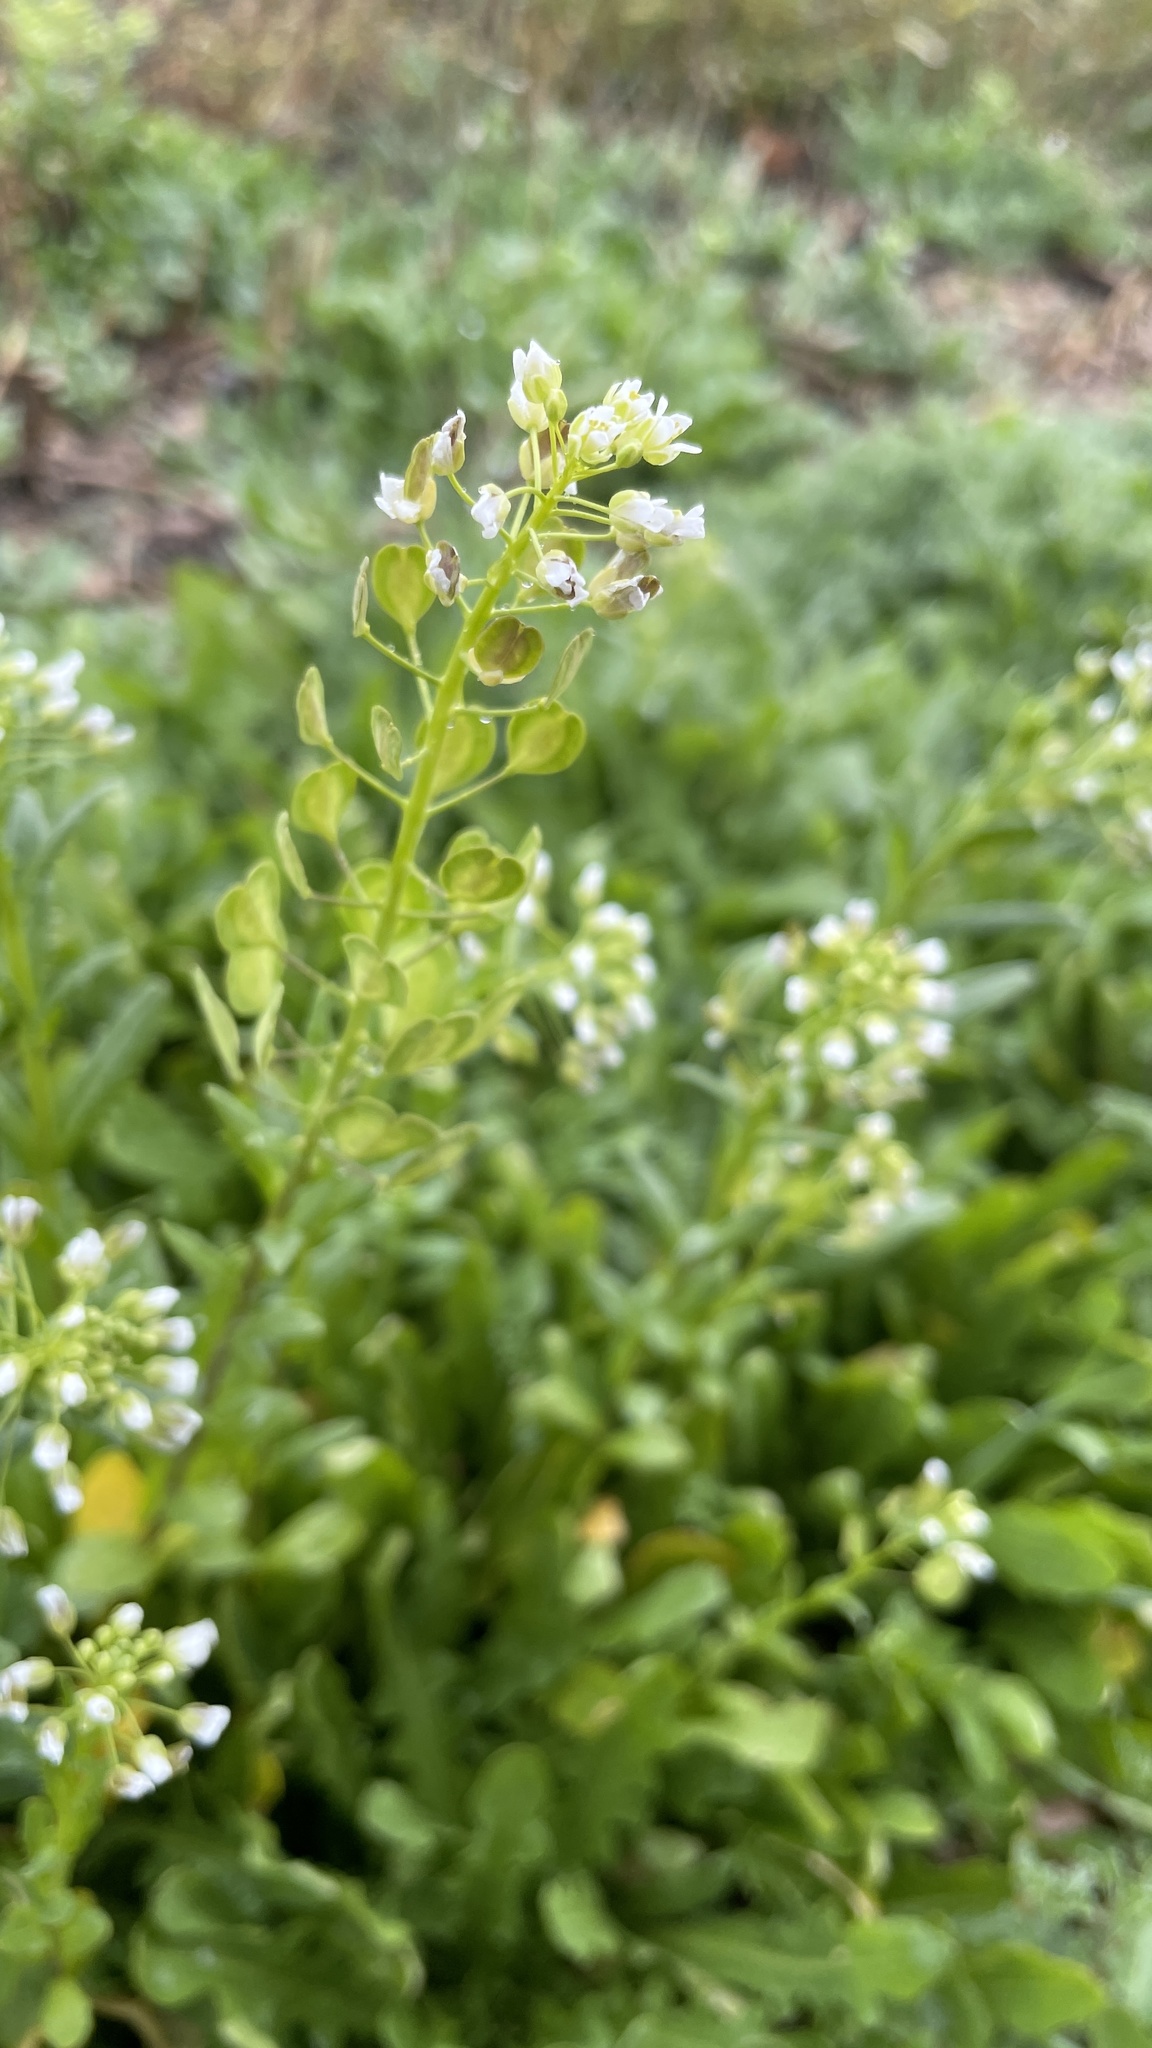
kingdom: Plantae
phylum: Tracheophyta
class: Magnoliopsida
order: Brassicales
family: Brassicaceae
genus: Thlaspi
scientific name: Thlaspi arvense
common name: Field pennycress
